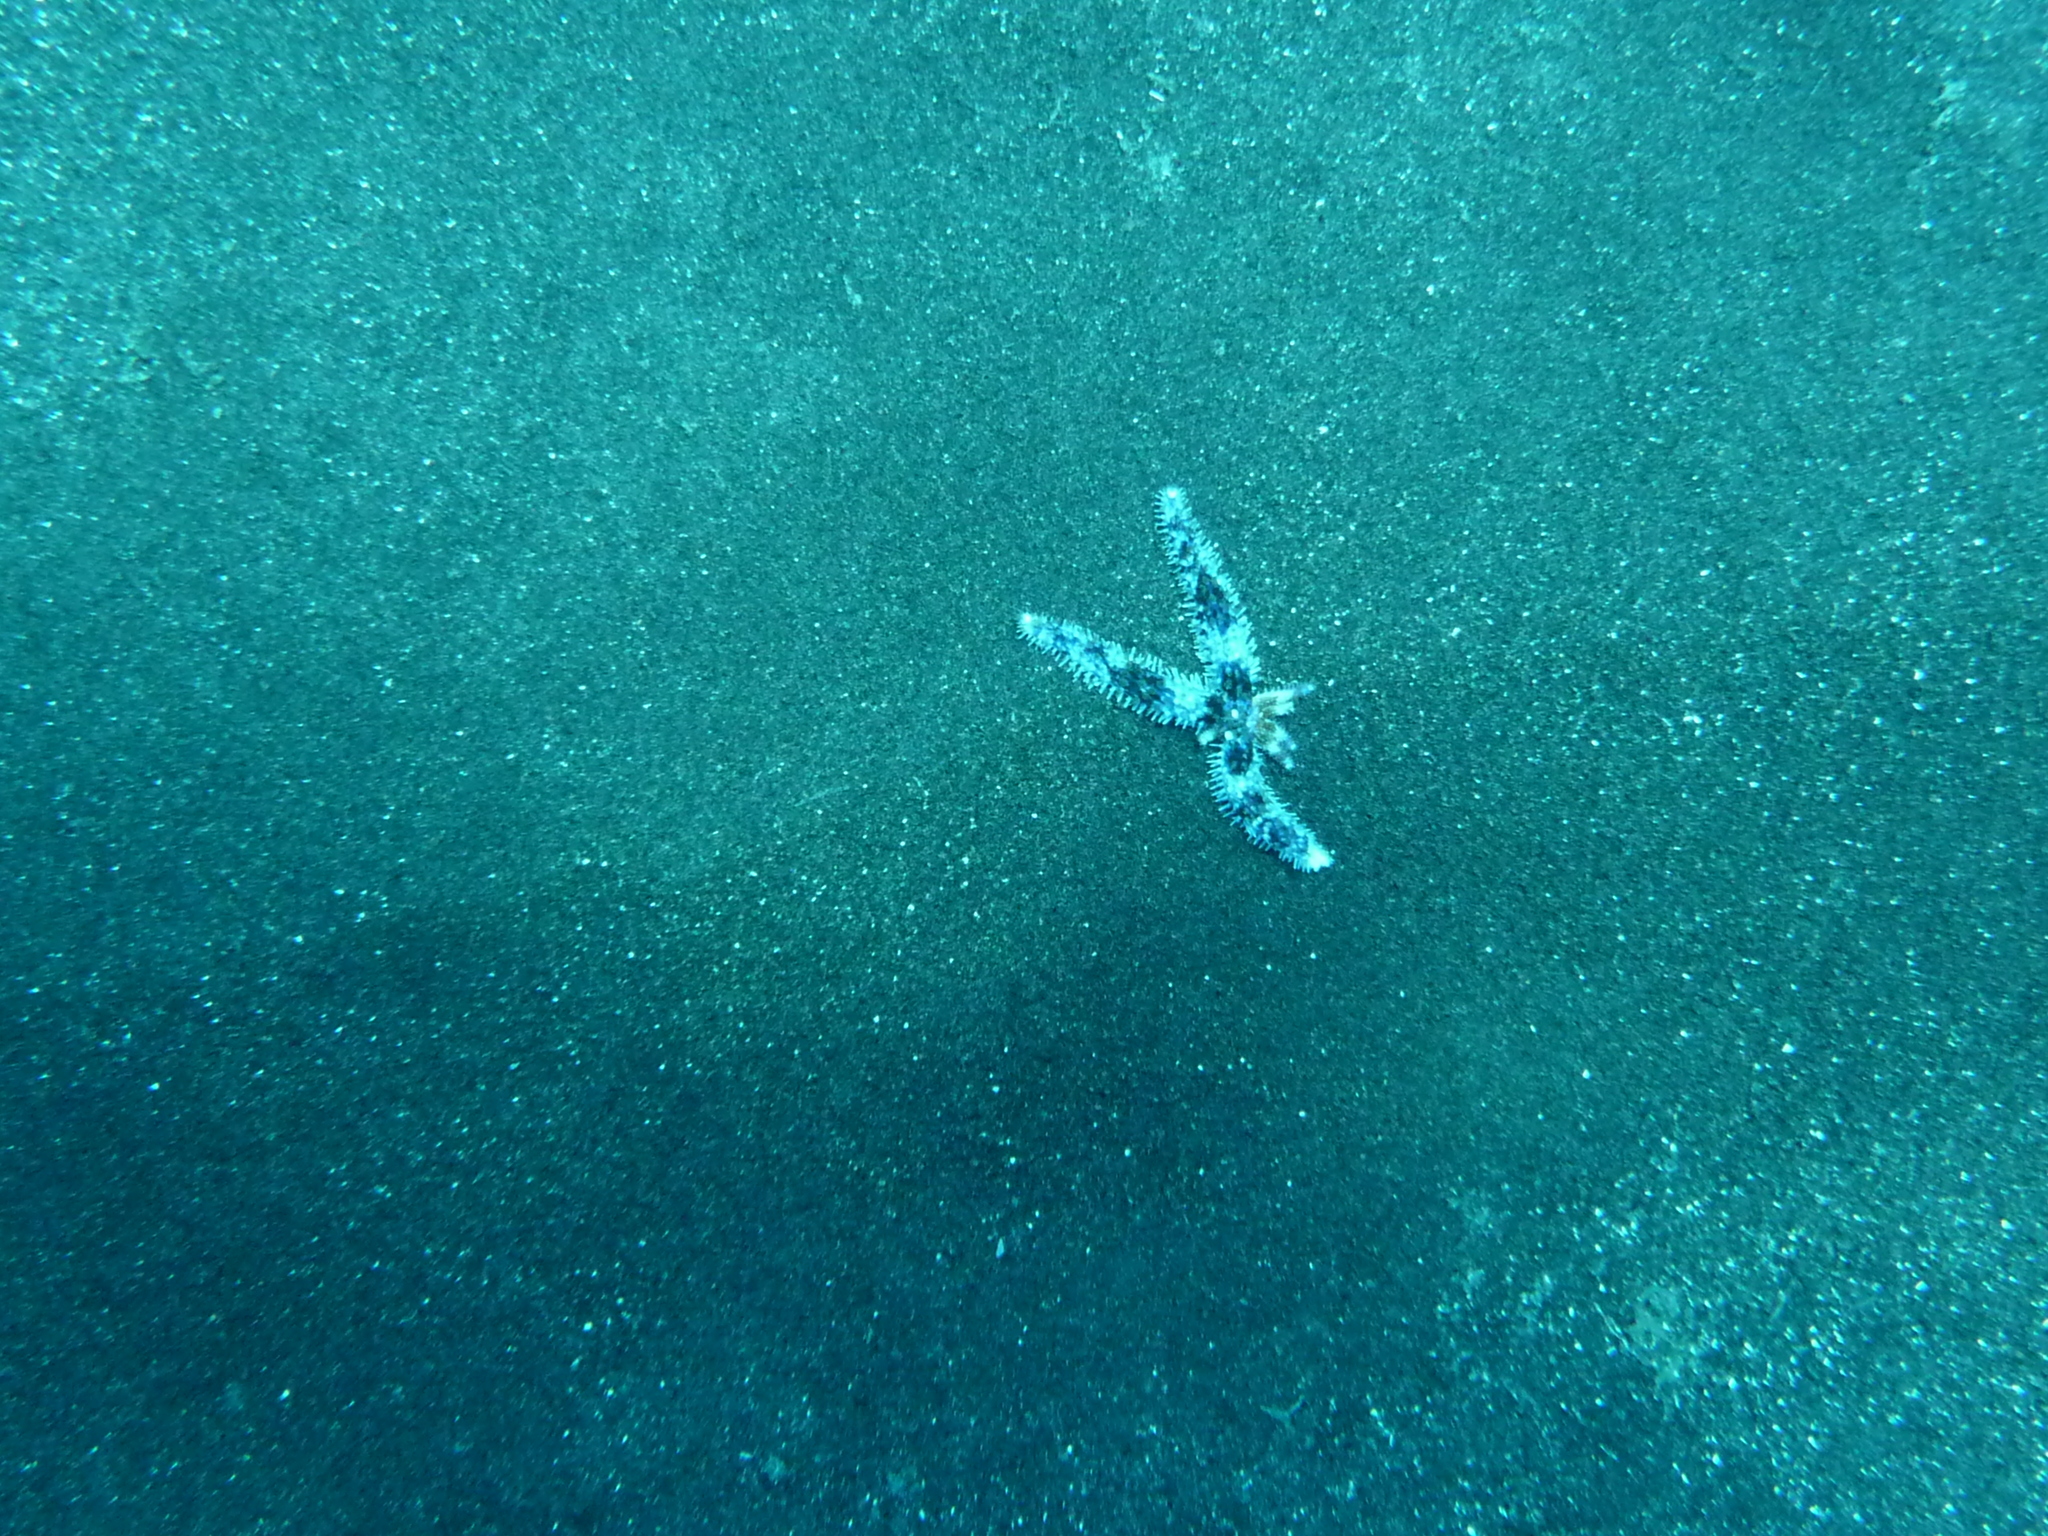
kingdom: Animalia
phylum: Echinodermata
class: Asteroidea
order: Forcipulatida
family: Asteriidae
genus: Coscinasterias
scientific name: Coscinasterias tenuispina
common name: Blue spiny starfish
